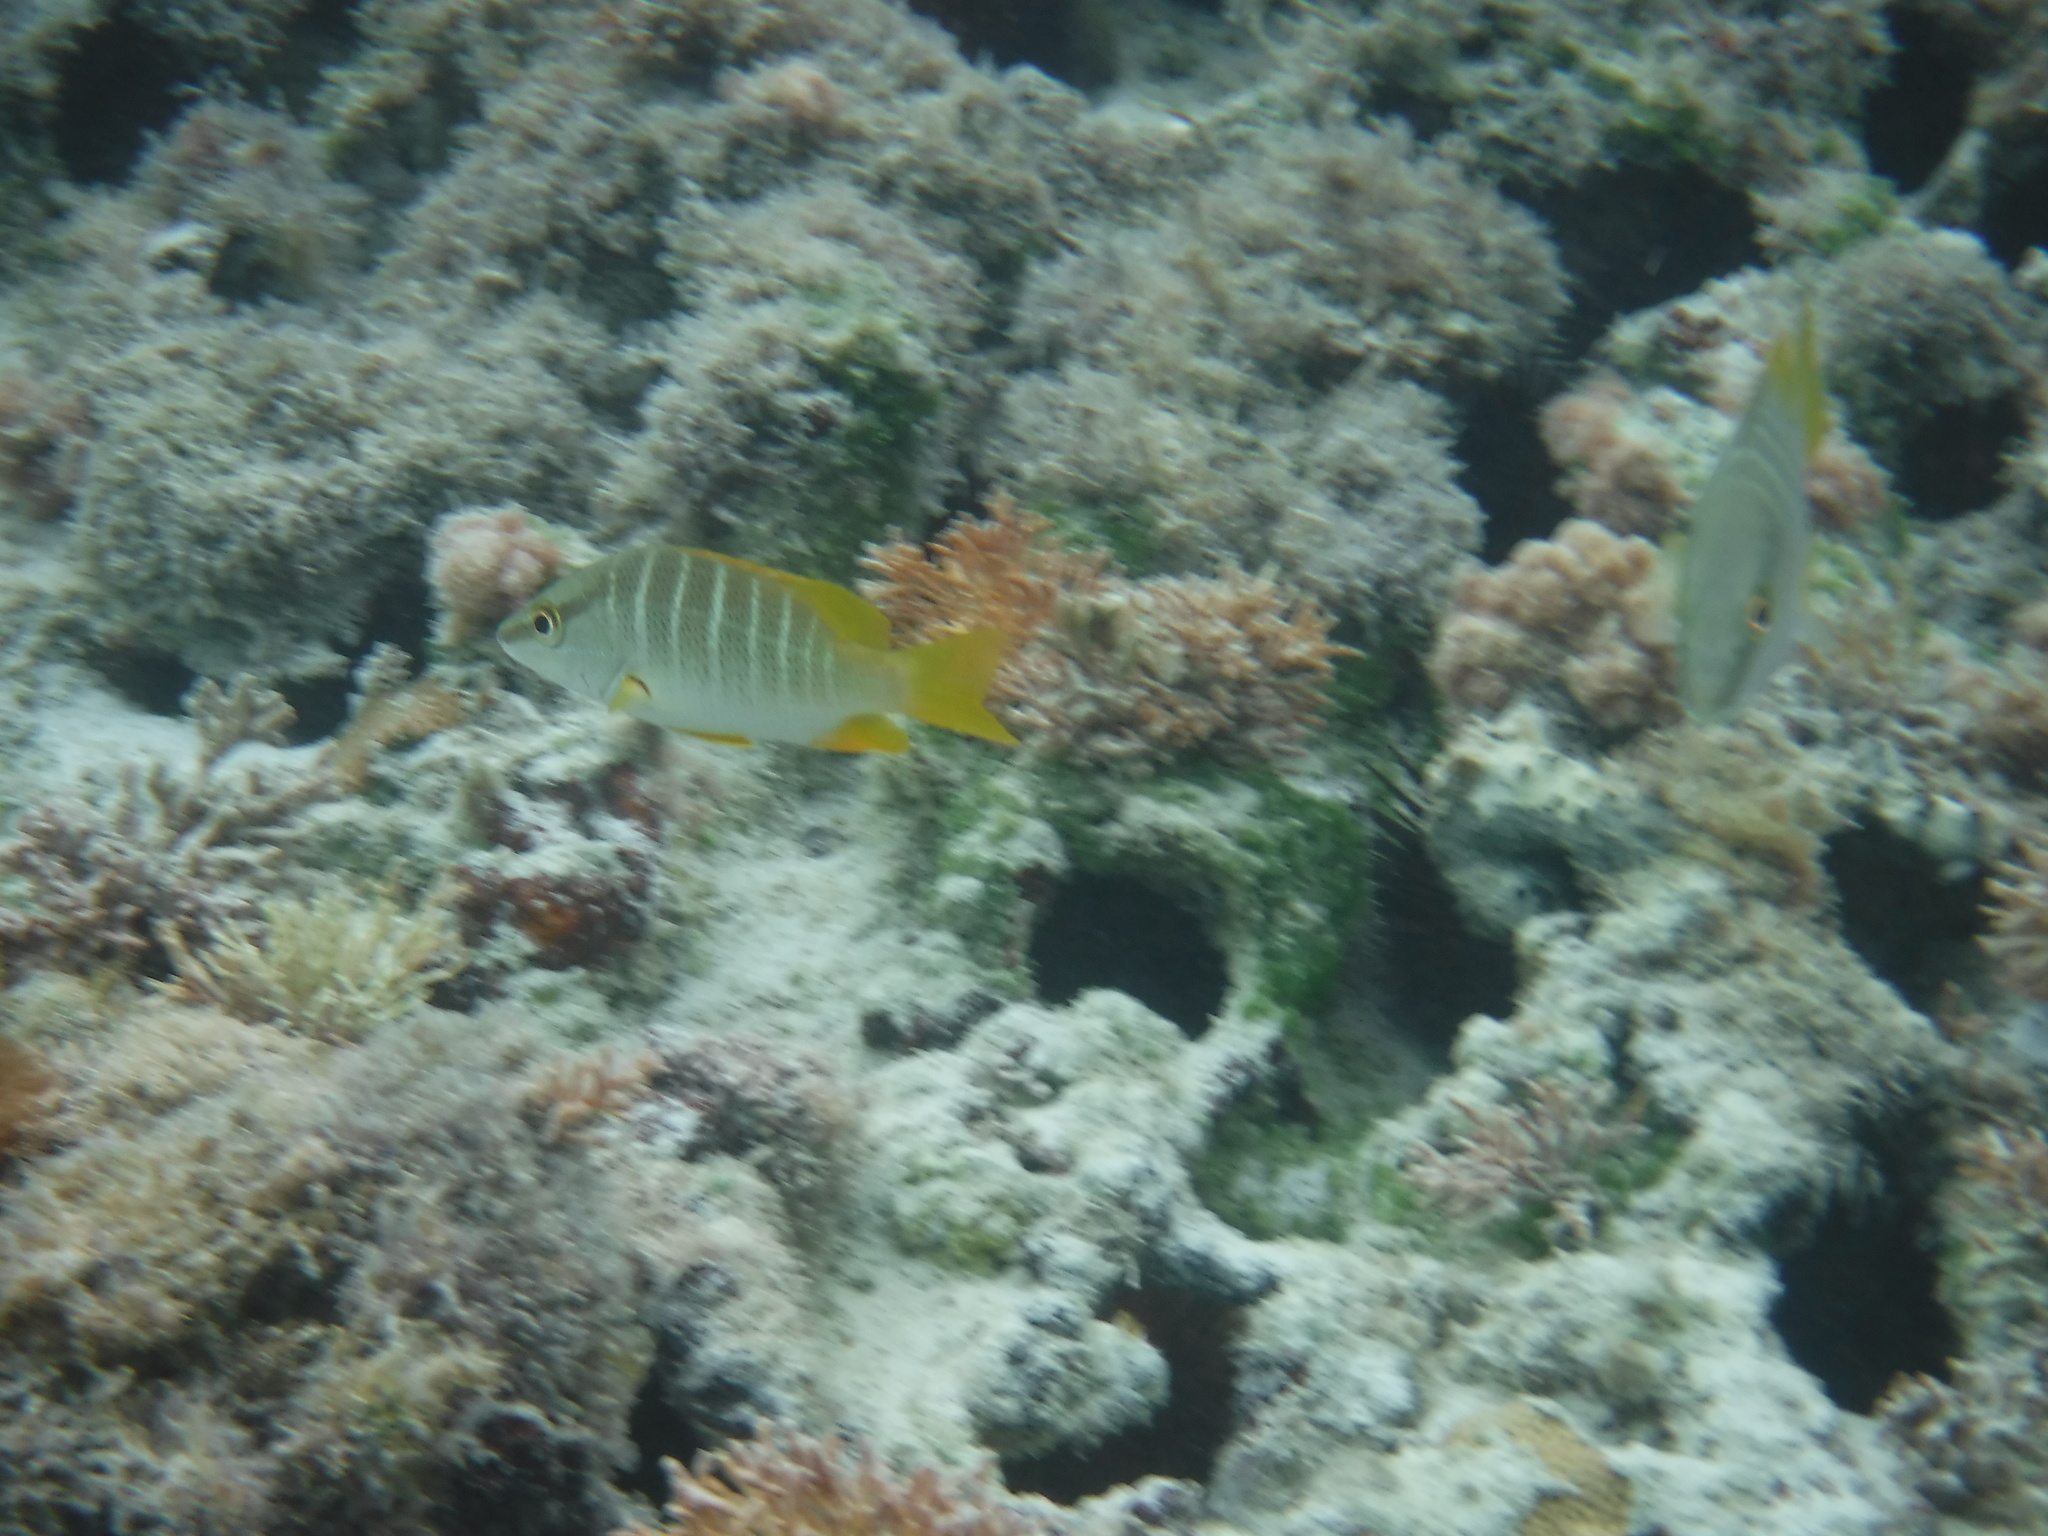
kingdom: Animalia
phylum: Chordata
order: Perciformes
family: Lutjanidae
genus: Lutjanus
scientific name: Lutjanus apodus
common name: Schoolmaster
